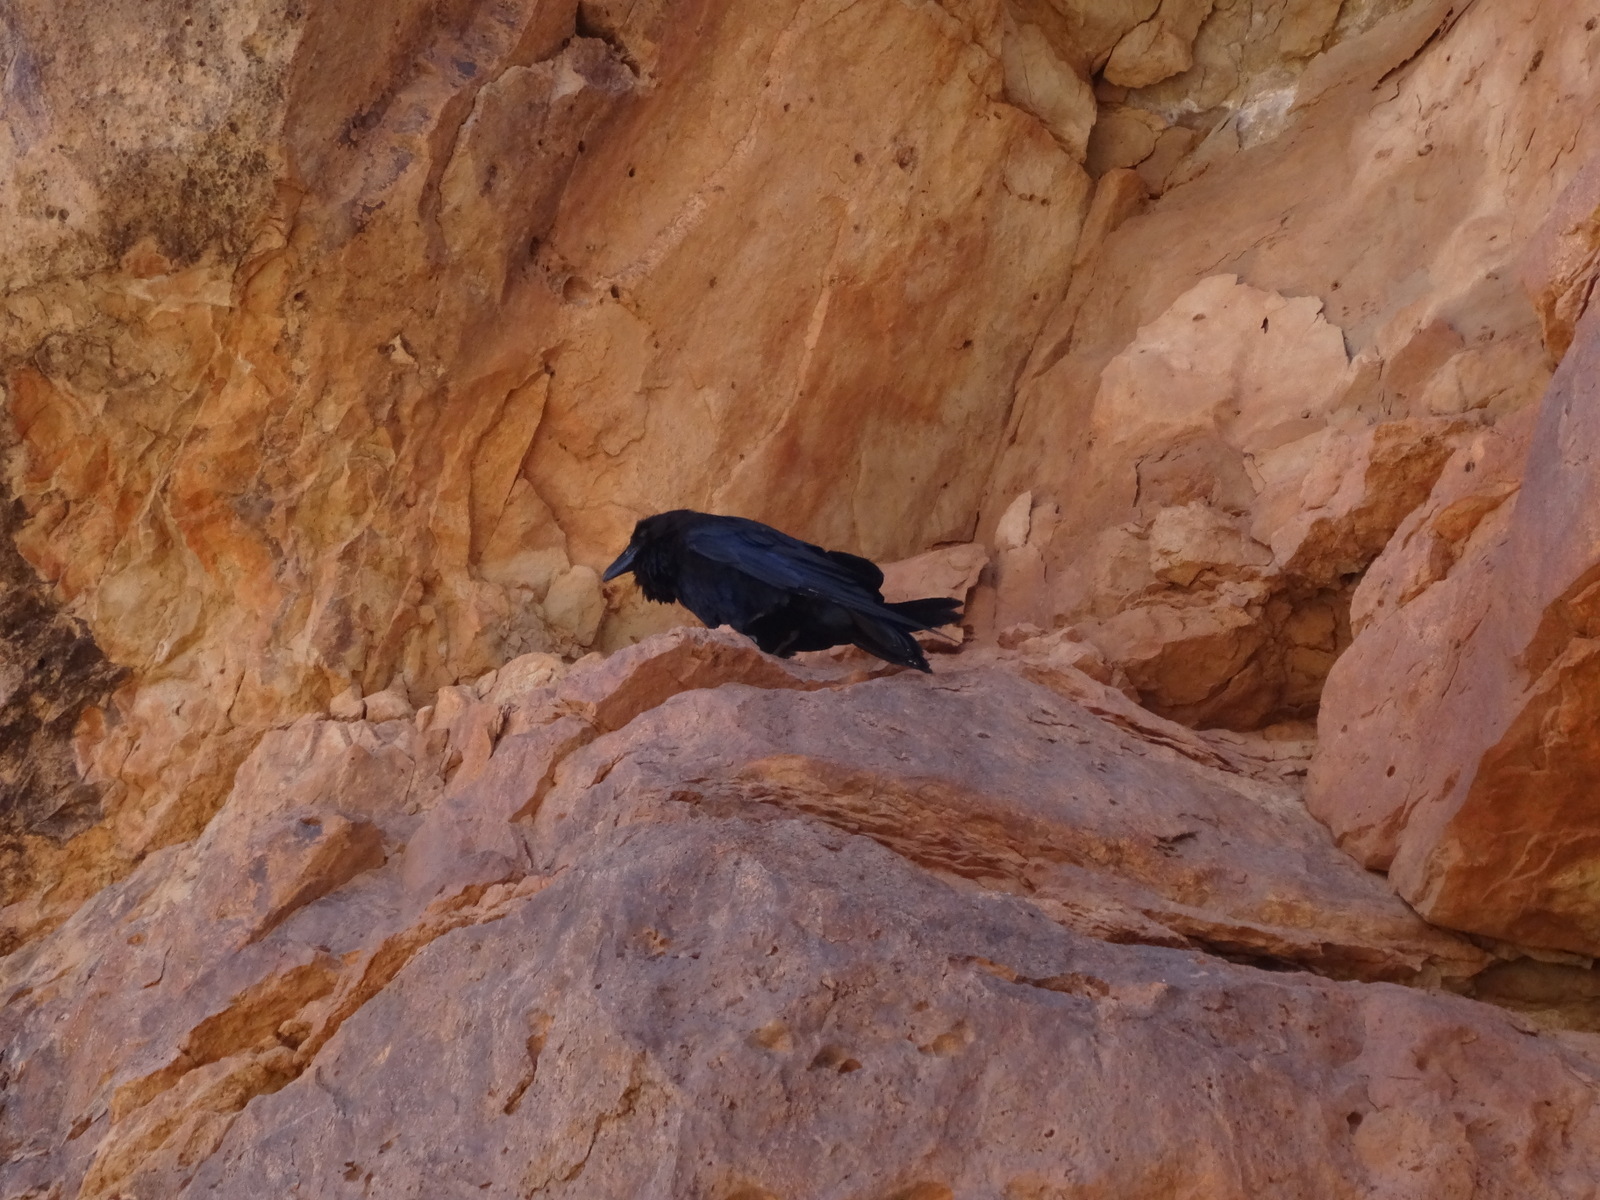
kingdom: Animalia
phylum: Chordata
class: Aves
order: Passeriformes
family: Corvidae
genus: Corvus
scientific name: Corvus corax
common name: Common raven
